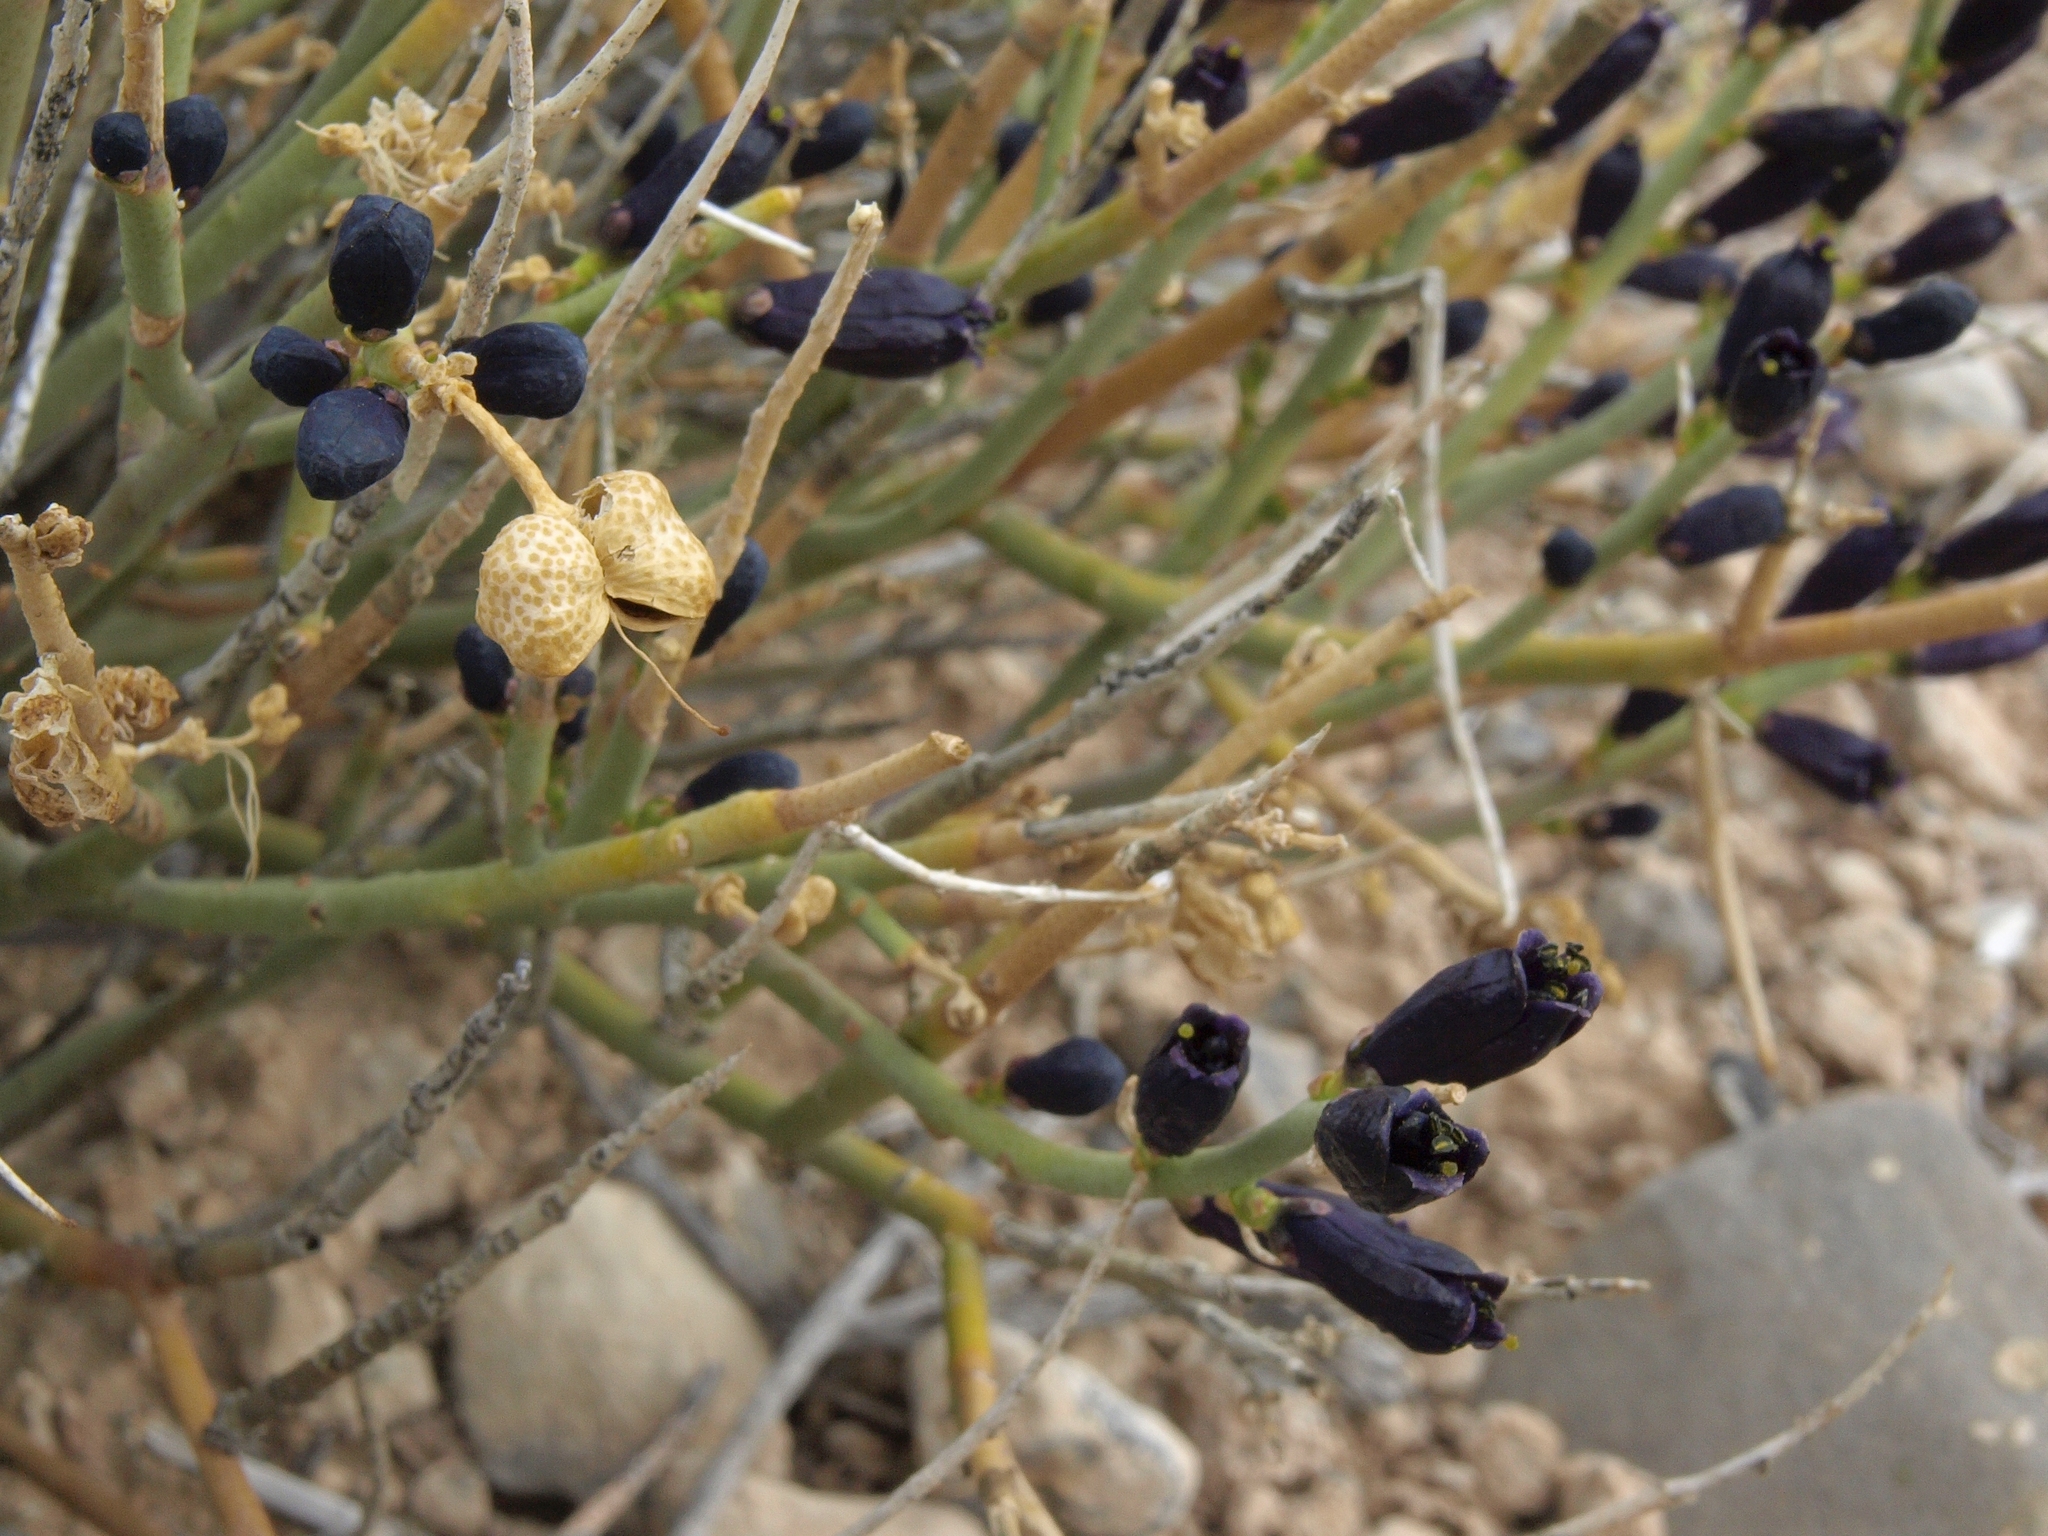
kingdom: Plantae
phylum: Tracheophyta
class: Magnoliopsida
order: Sapindales
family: Rutaceae
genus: Thamnosma
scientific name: Thamnosma montana
